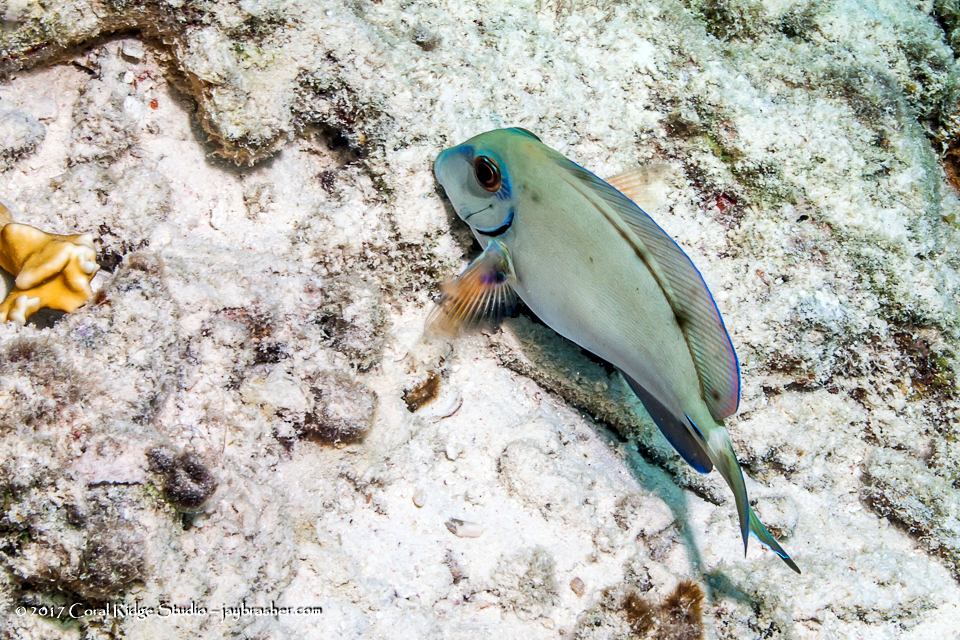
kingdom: Animalia
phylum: Chordata
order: Perciformes
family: Acanthuridae
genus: Acanthurus
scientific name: Acanthurus bahianus
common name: Ocean surgeon
